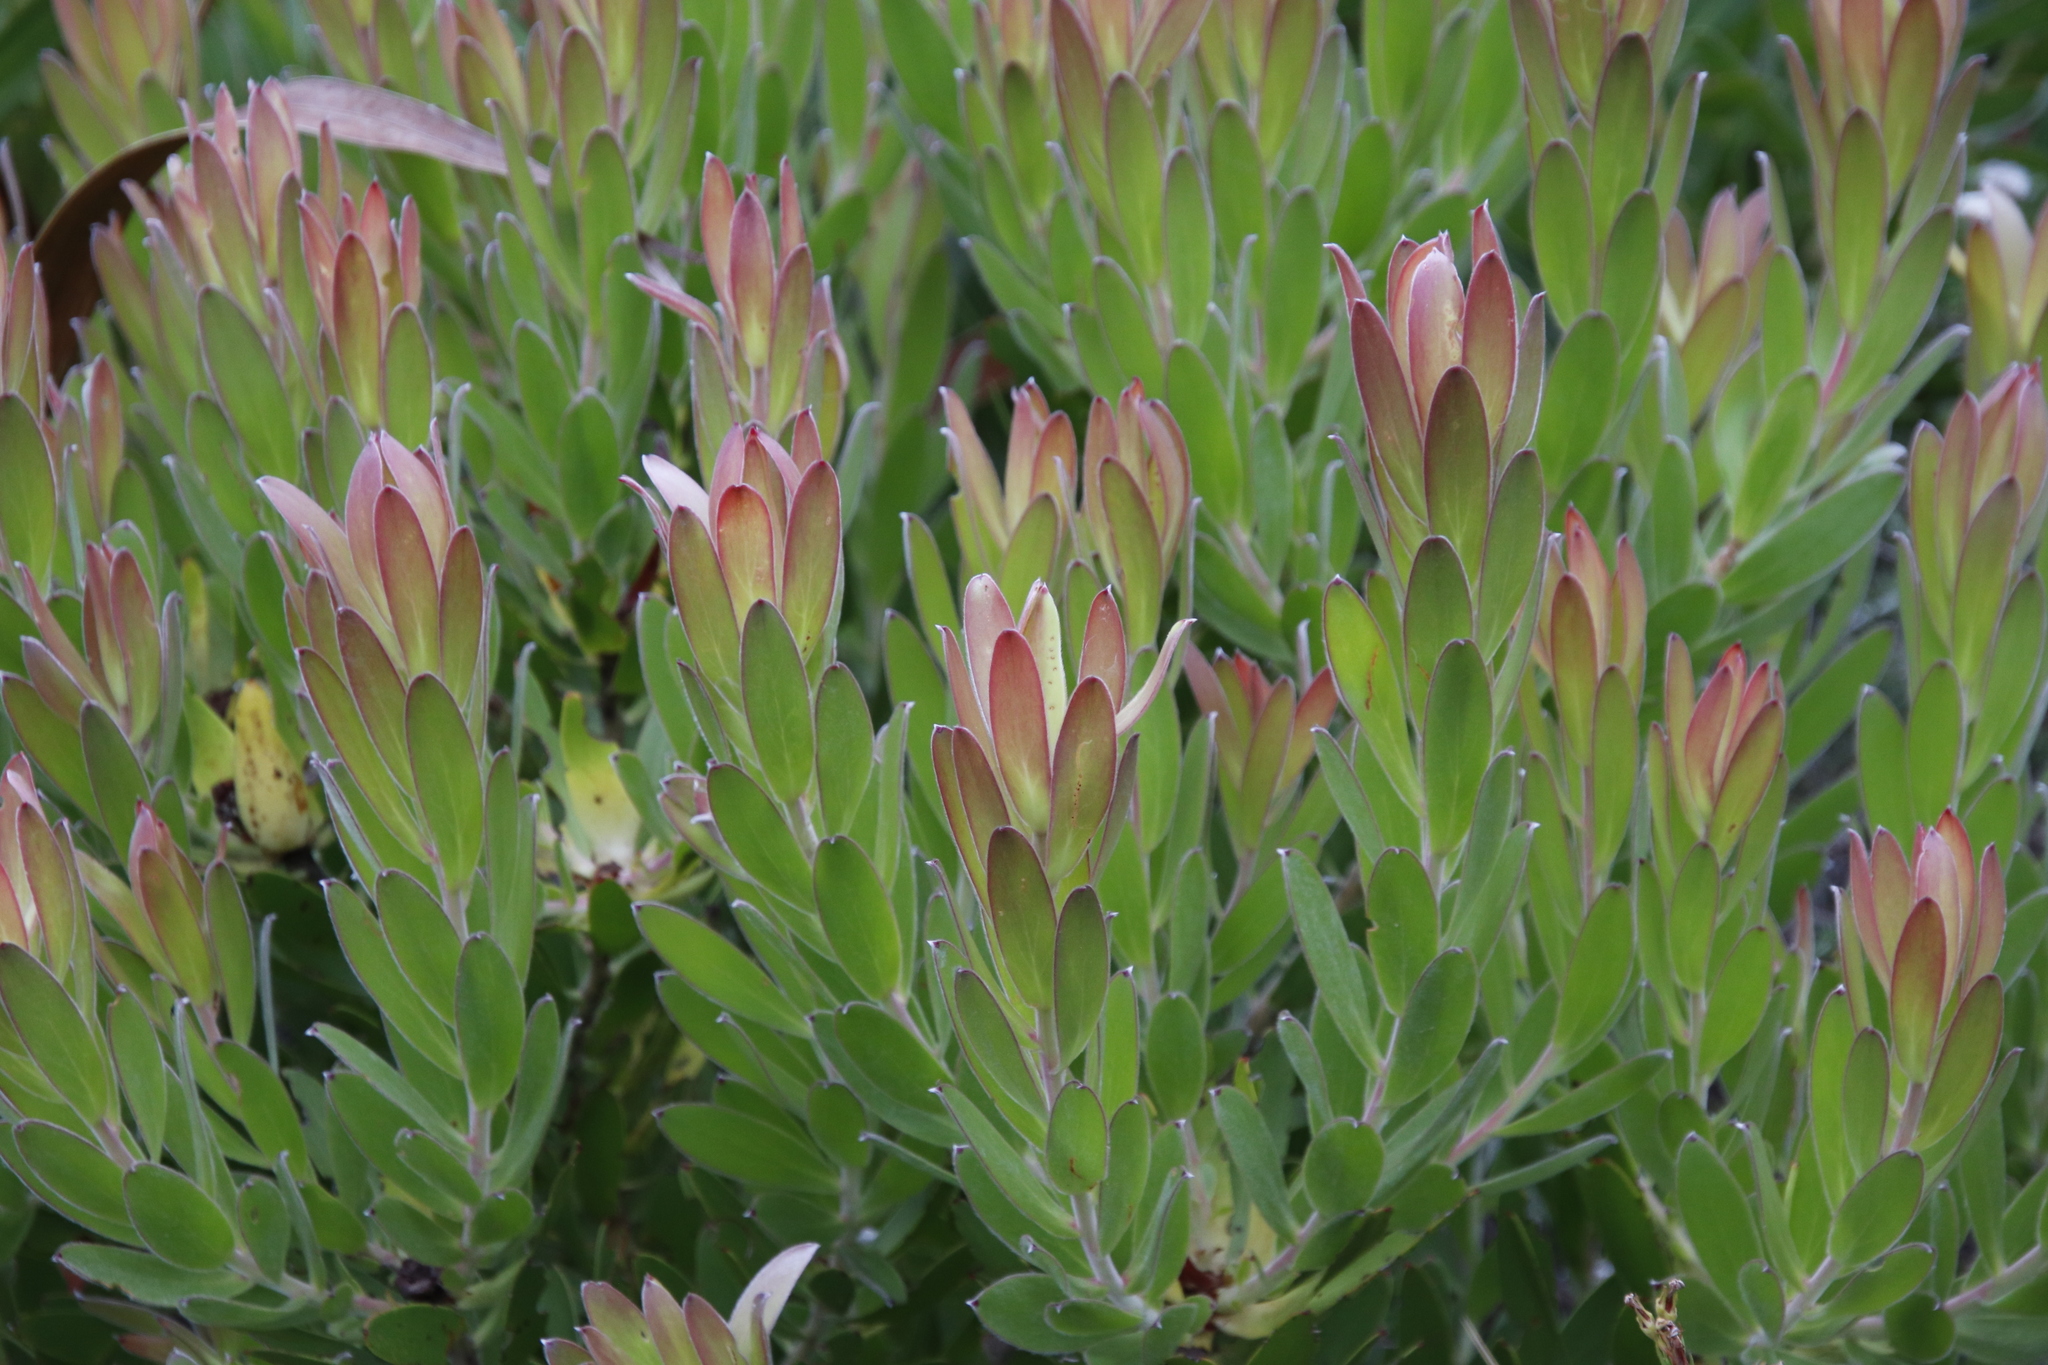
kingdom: Plantae
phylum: Tracheophyta
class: Magnoliopsida
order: Proteales
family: Proteaceae
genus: Leucadendron
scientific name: Leucadendron laureolum
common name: Golden sunshinebush
